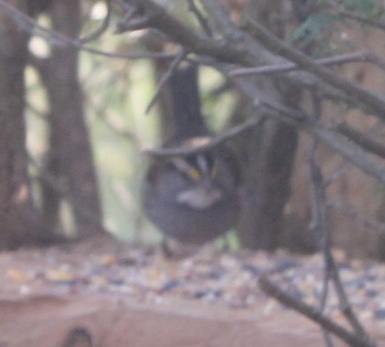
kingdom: Animalia
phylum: Chordata
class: Aves
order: Passeriformes
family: Passerellidae
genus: Zonotrichia
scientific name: Zonotrichia albicollis
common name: White-throated sparrow
